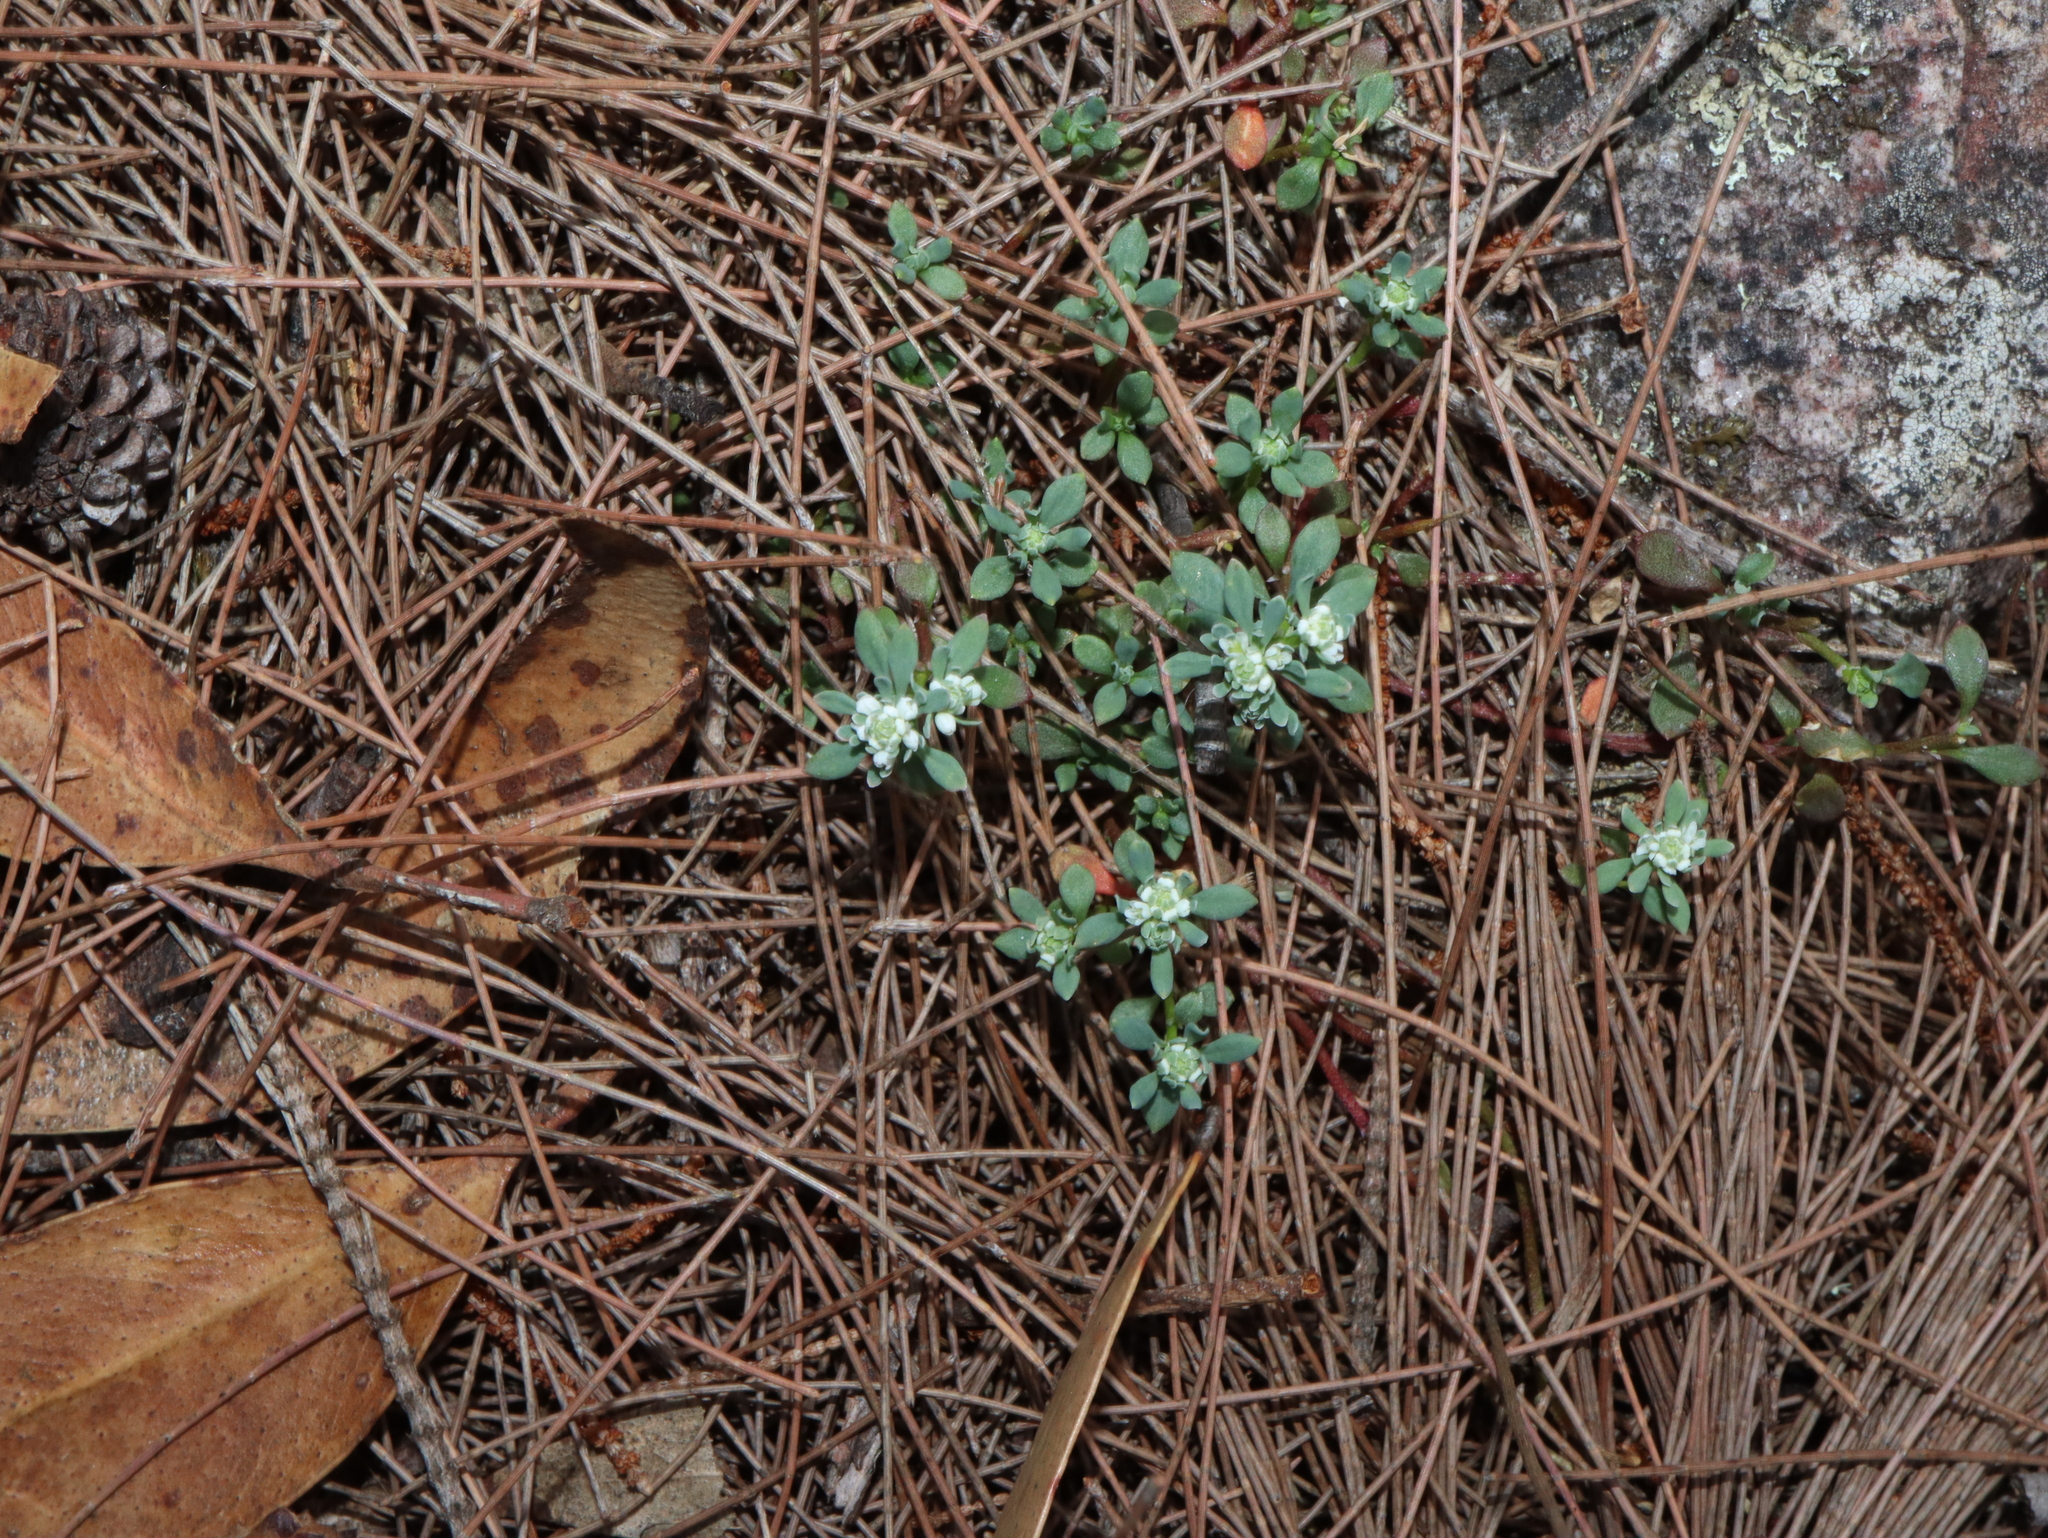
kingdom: Plantae
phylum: Tracheophyta
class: Magnoliopsida
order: Malpighiales
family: Phyllanthaceae
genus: Poranthera
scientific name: Poranthera microphylla
